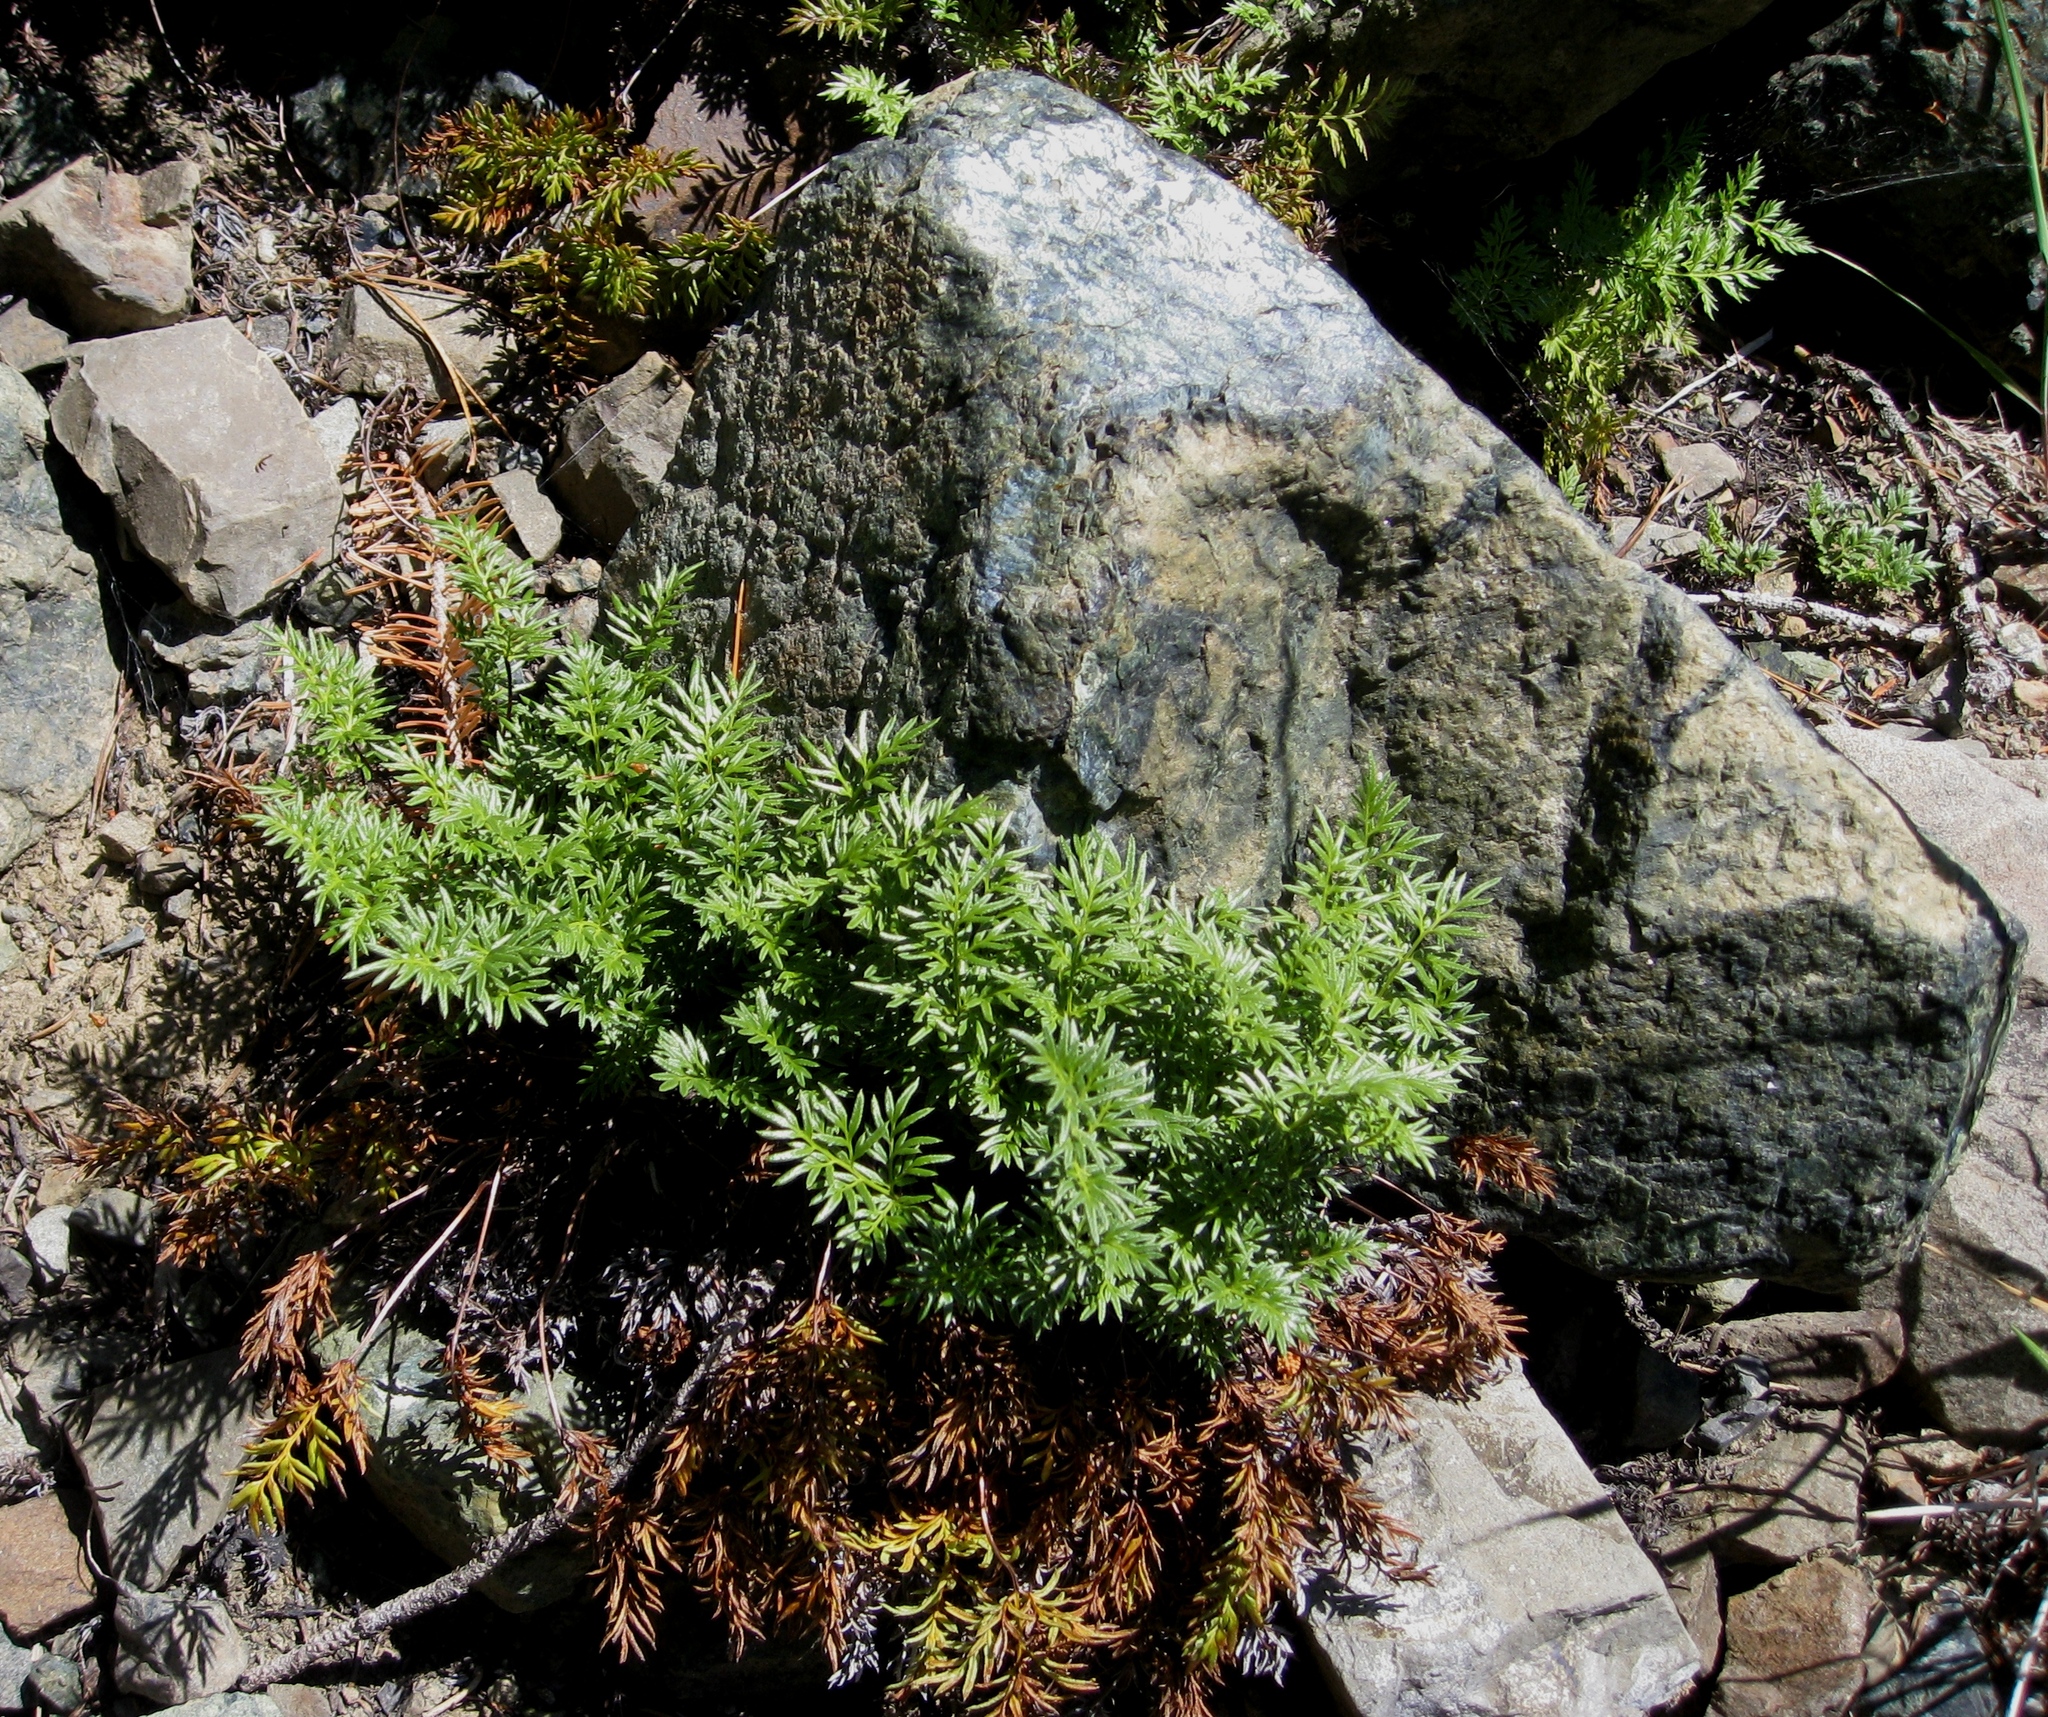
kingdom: Plantae
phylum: Tracheophyta
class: Polypodiopsida
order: Polypodiales
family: Pteridaceae
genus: Aspidotis
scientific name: Aspidotis densa
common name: Indian's dream
